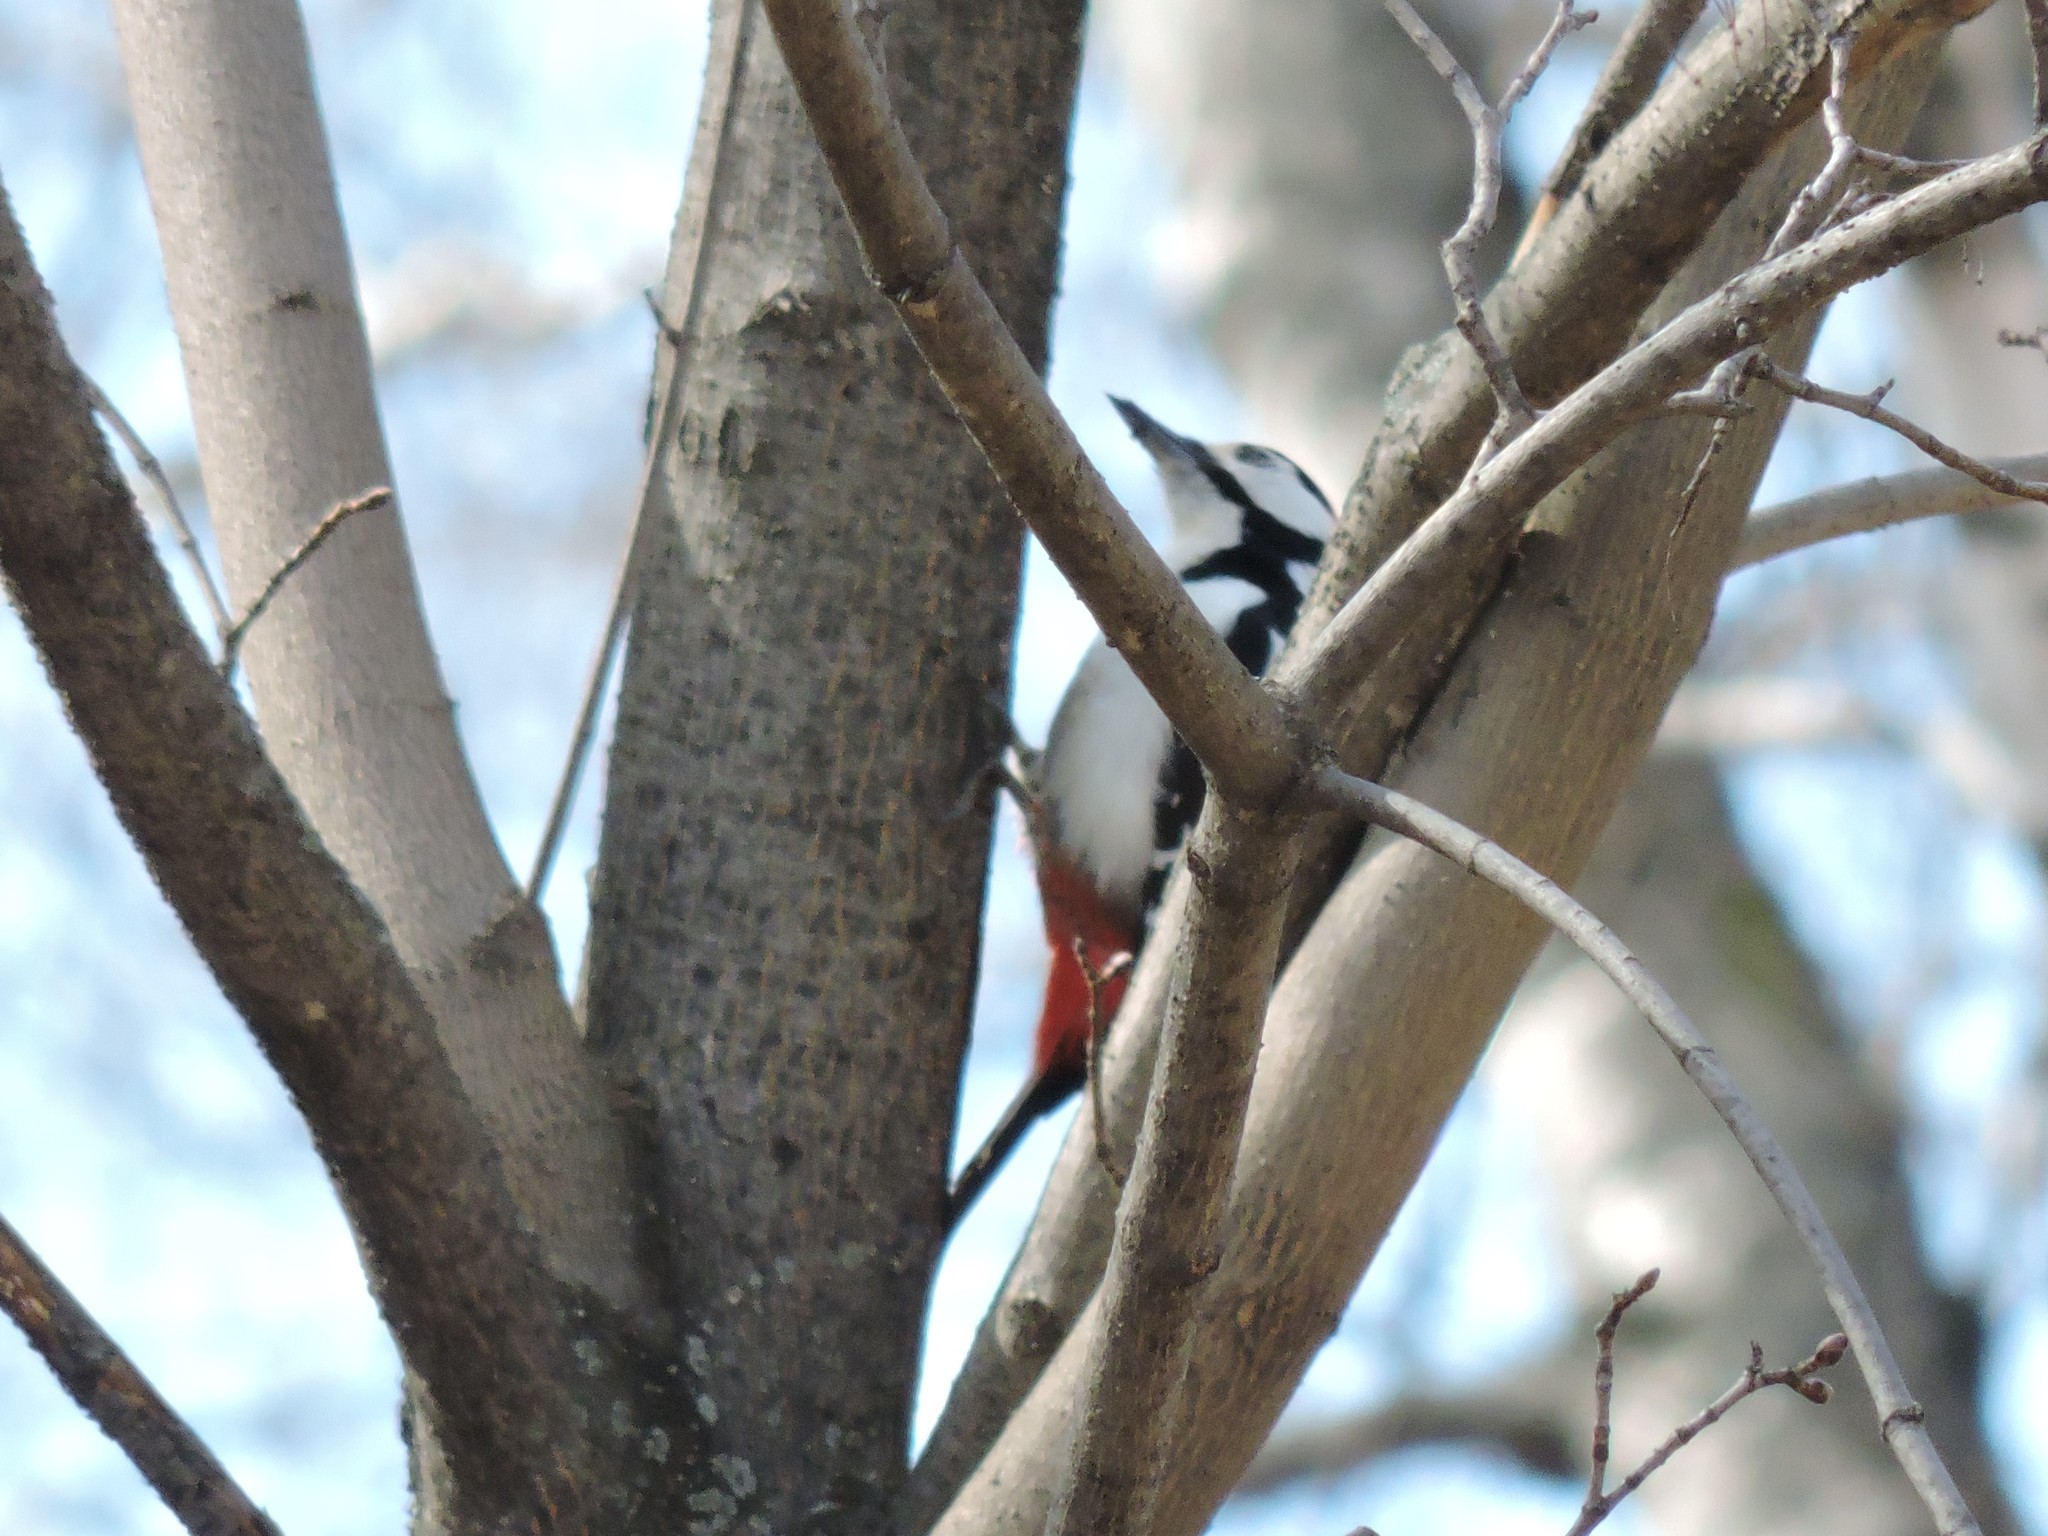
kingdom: Animalia
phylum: Chordata
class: Aves
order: Piciformes
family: Picidae
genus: Dendrocopos
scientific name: Dendrocopos major
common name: Great spotted woodpecker
